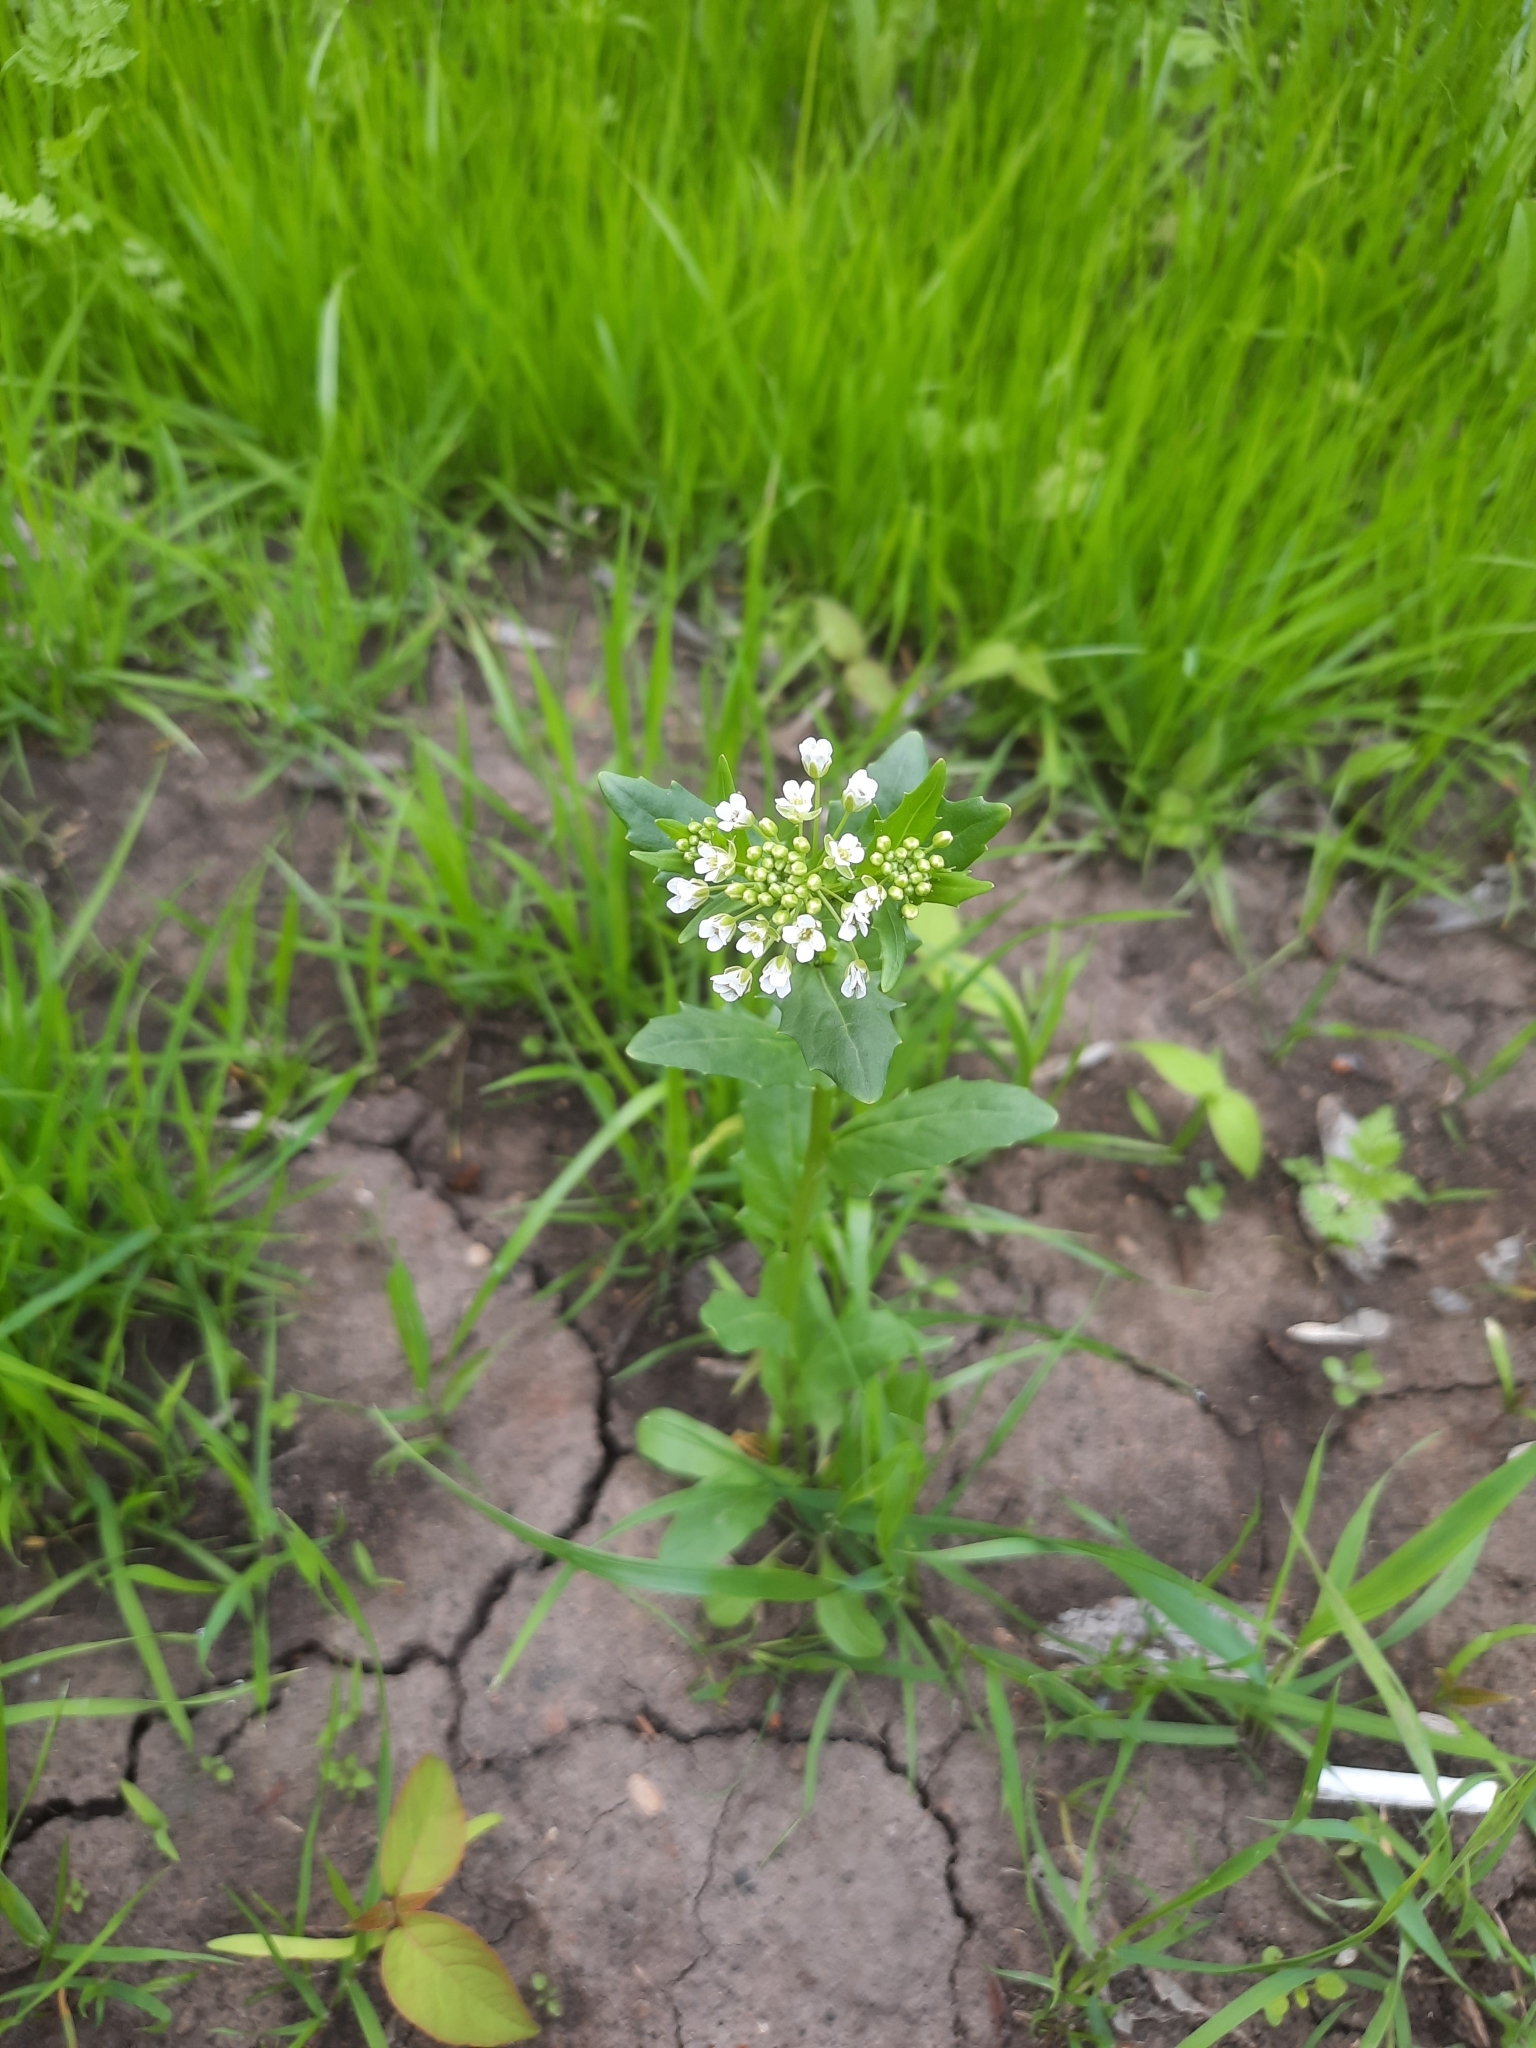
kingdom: Plantae
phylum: Tracheophyta
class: Magnoliopsida
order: Brassicales
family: Brassicaceae
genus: Thlaspi
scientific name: Thlaspi arvense
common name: Field pennycress
